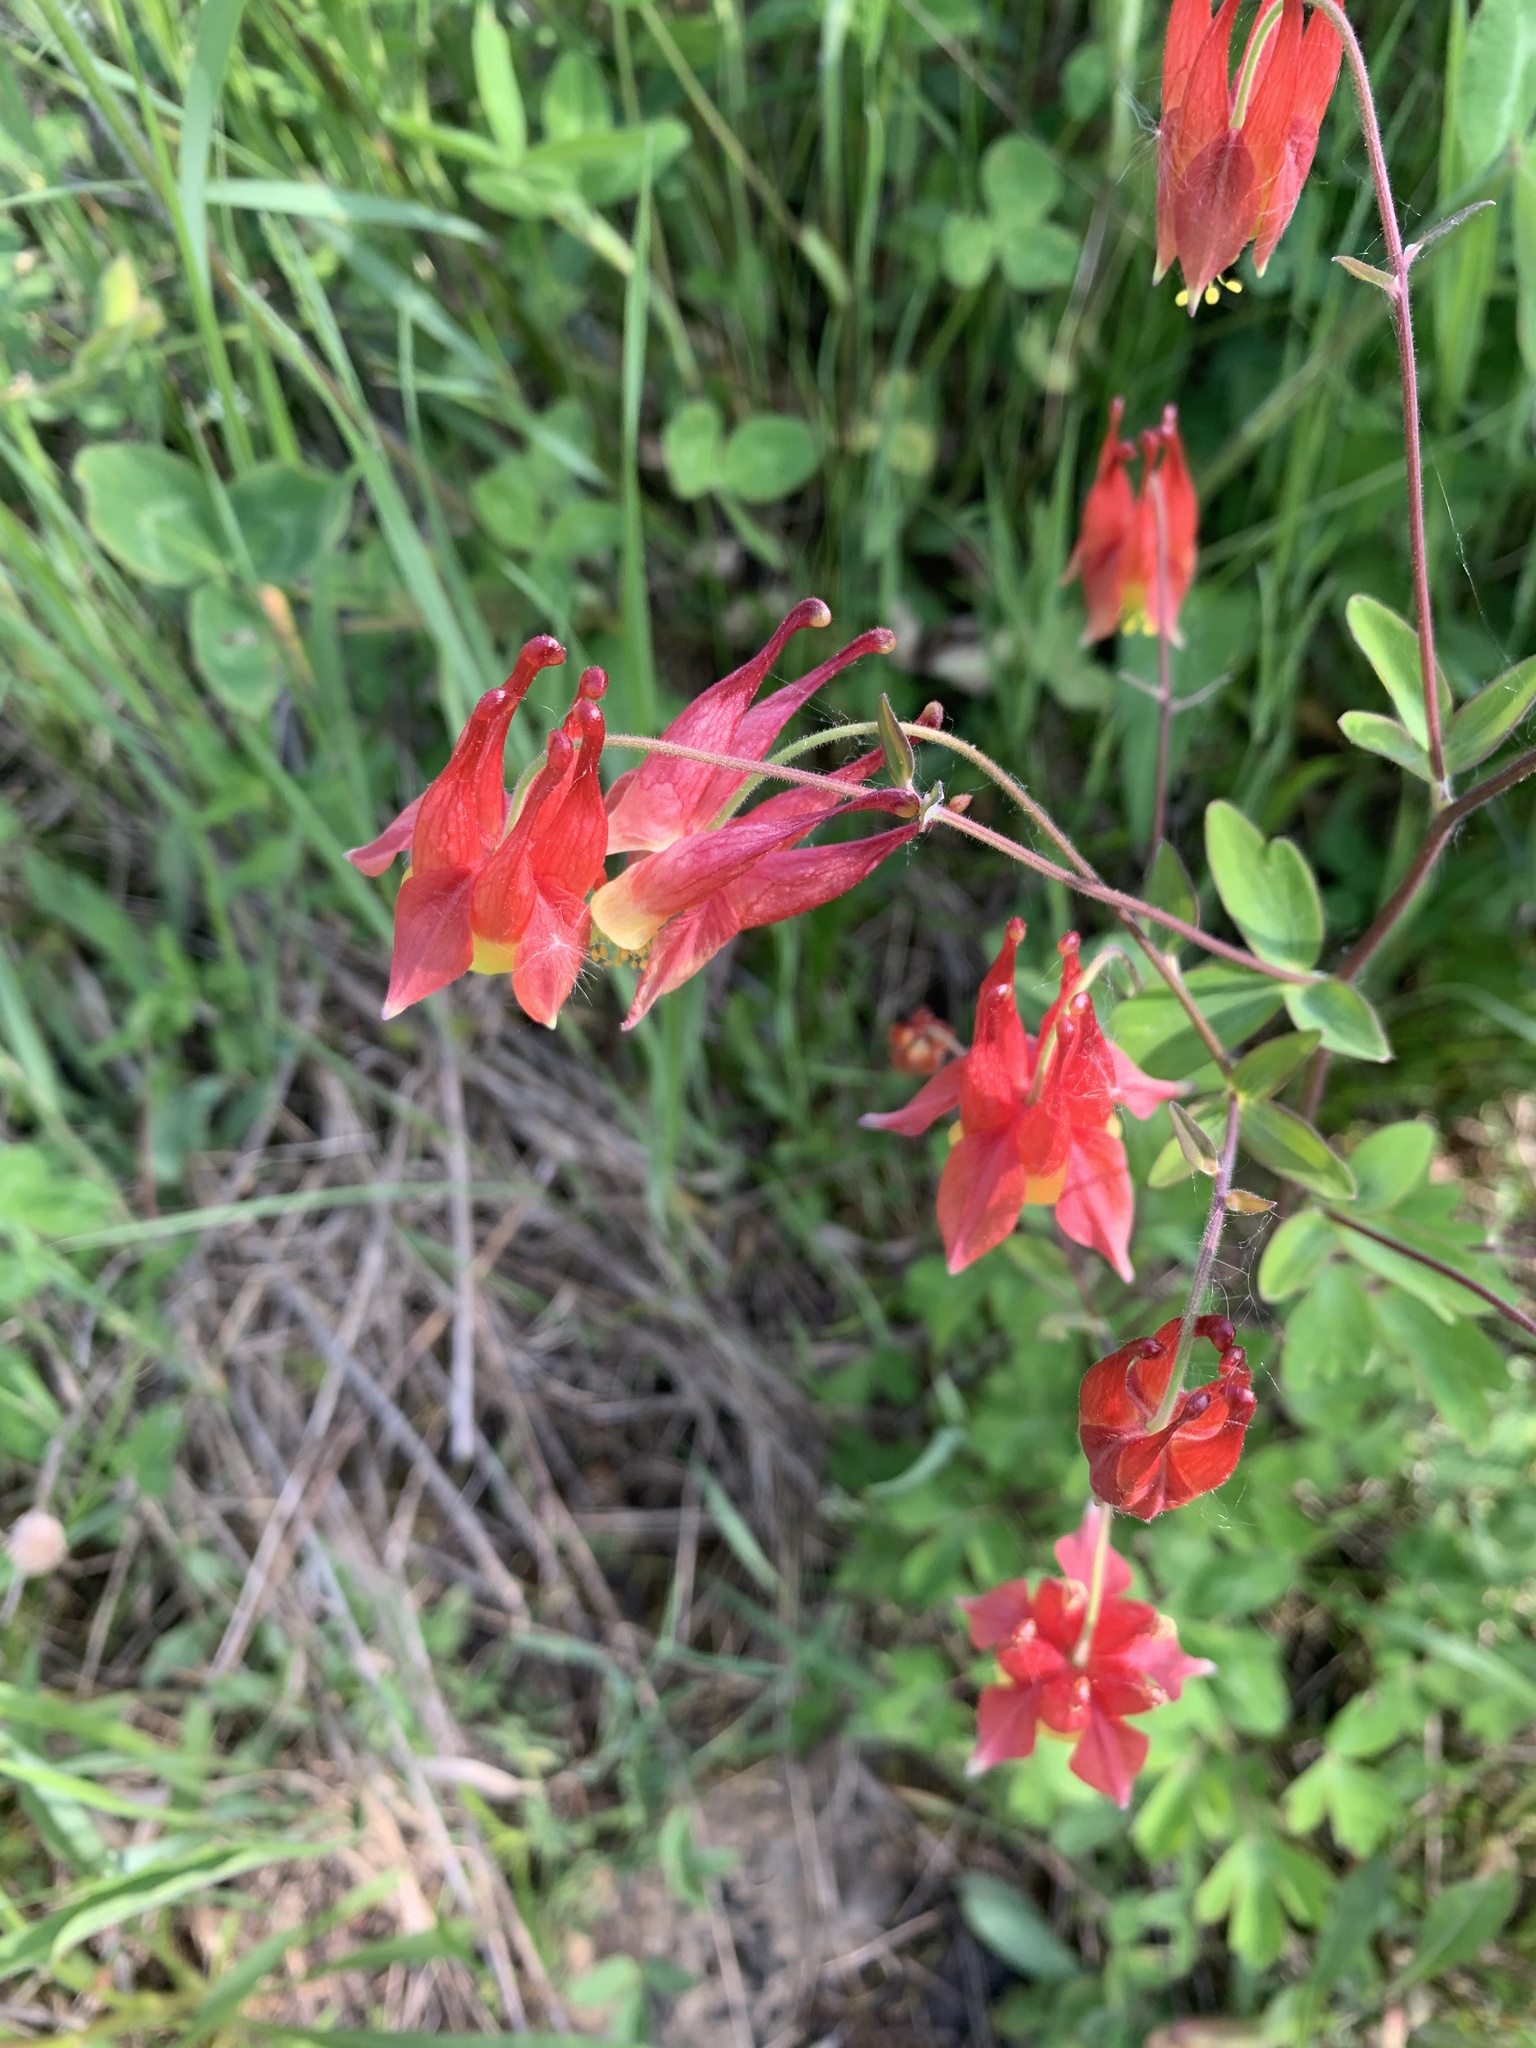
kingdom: Plantae
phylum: Tracheophyta
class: Magnoliopsida
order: Ranunculales
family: Ranunculaceae
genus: Aquilegia
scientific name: Aquilegia canadensis
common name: American columbine
